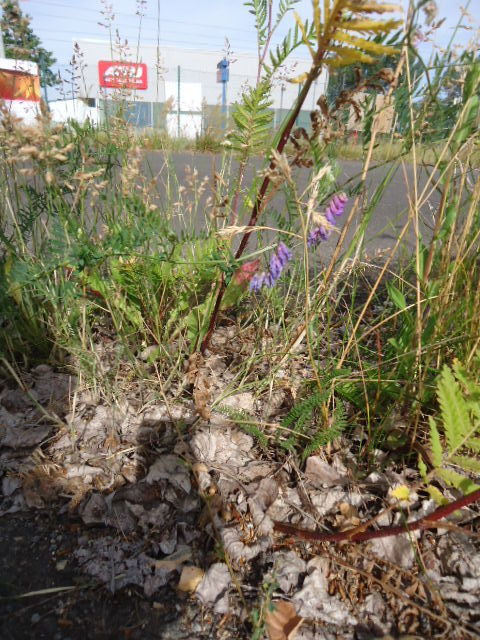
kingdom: Plantae
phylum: Tracheophyta
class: Magnoliopsida
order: Fabales
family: Fabaceae
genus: Vicia
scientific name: Vicia cracca
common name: Bird vetch
